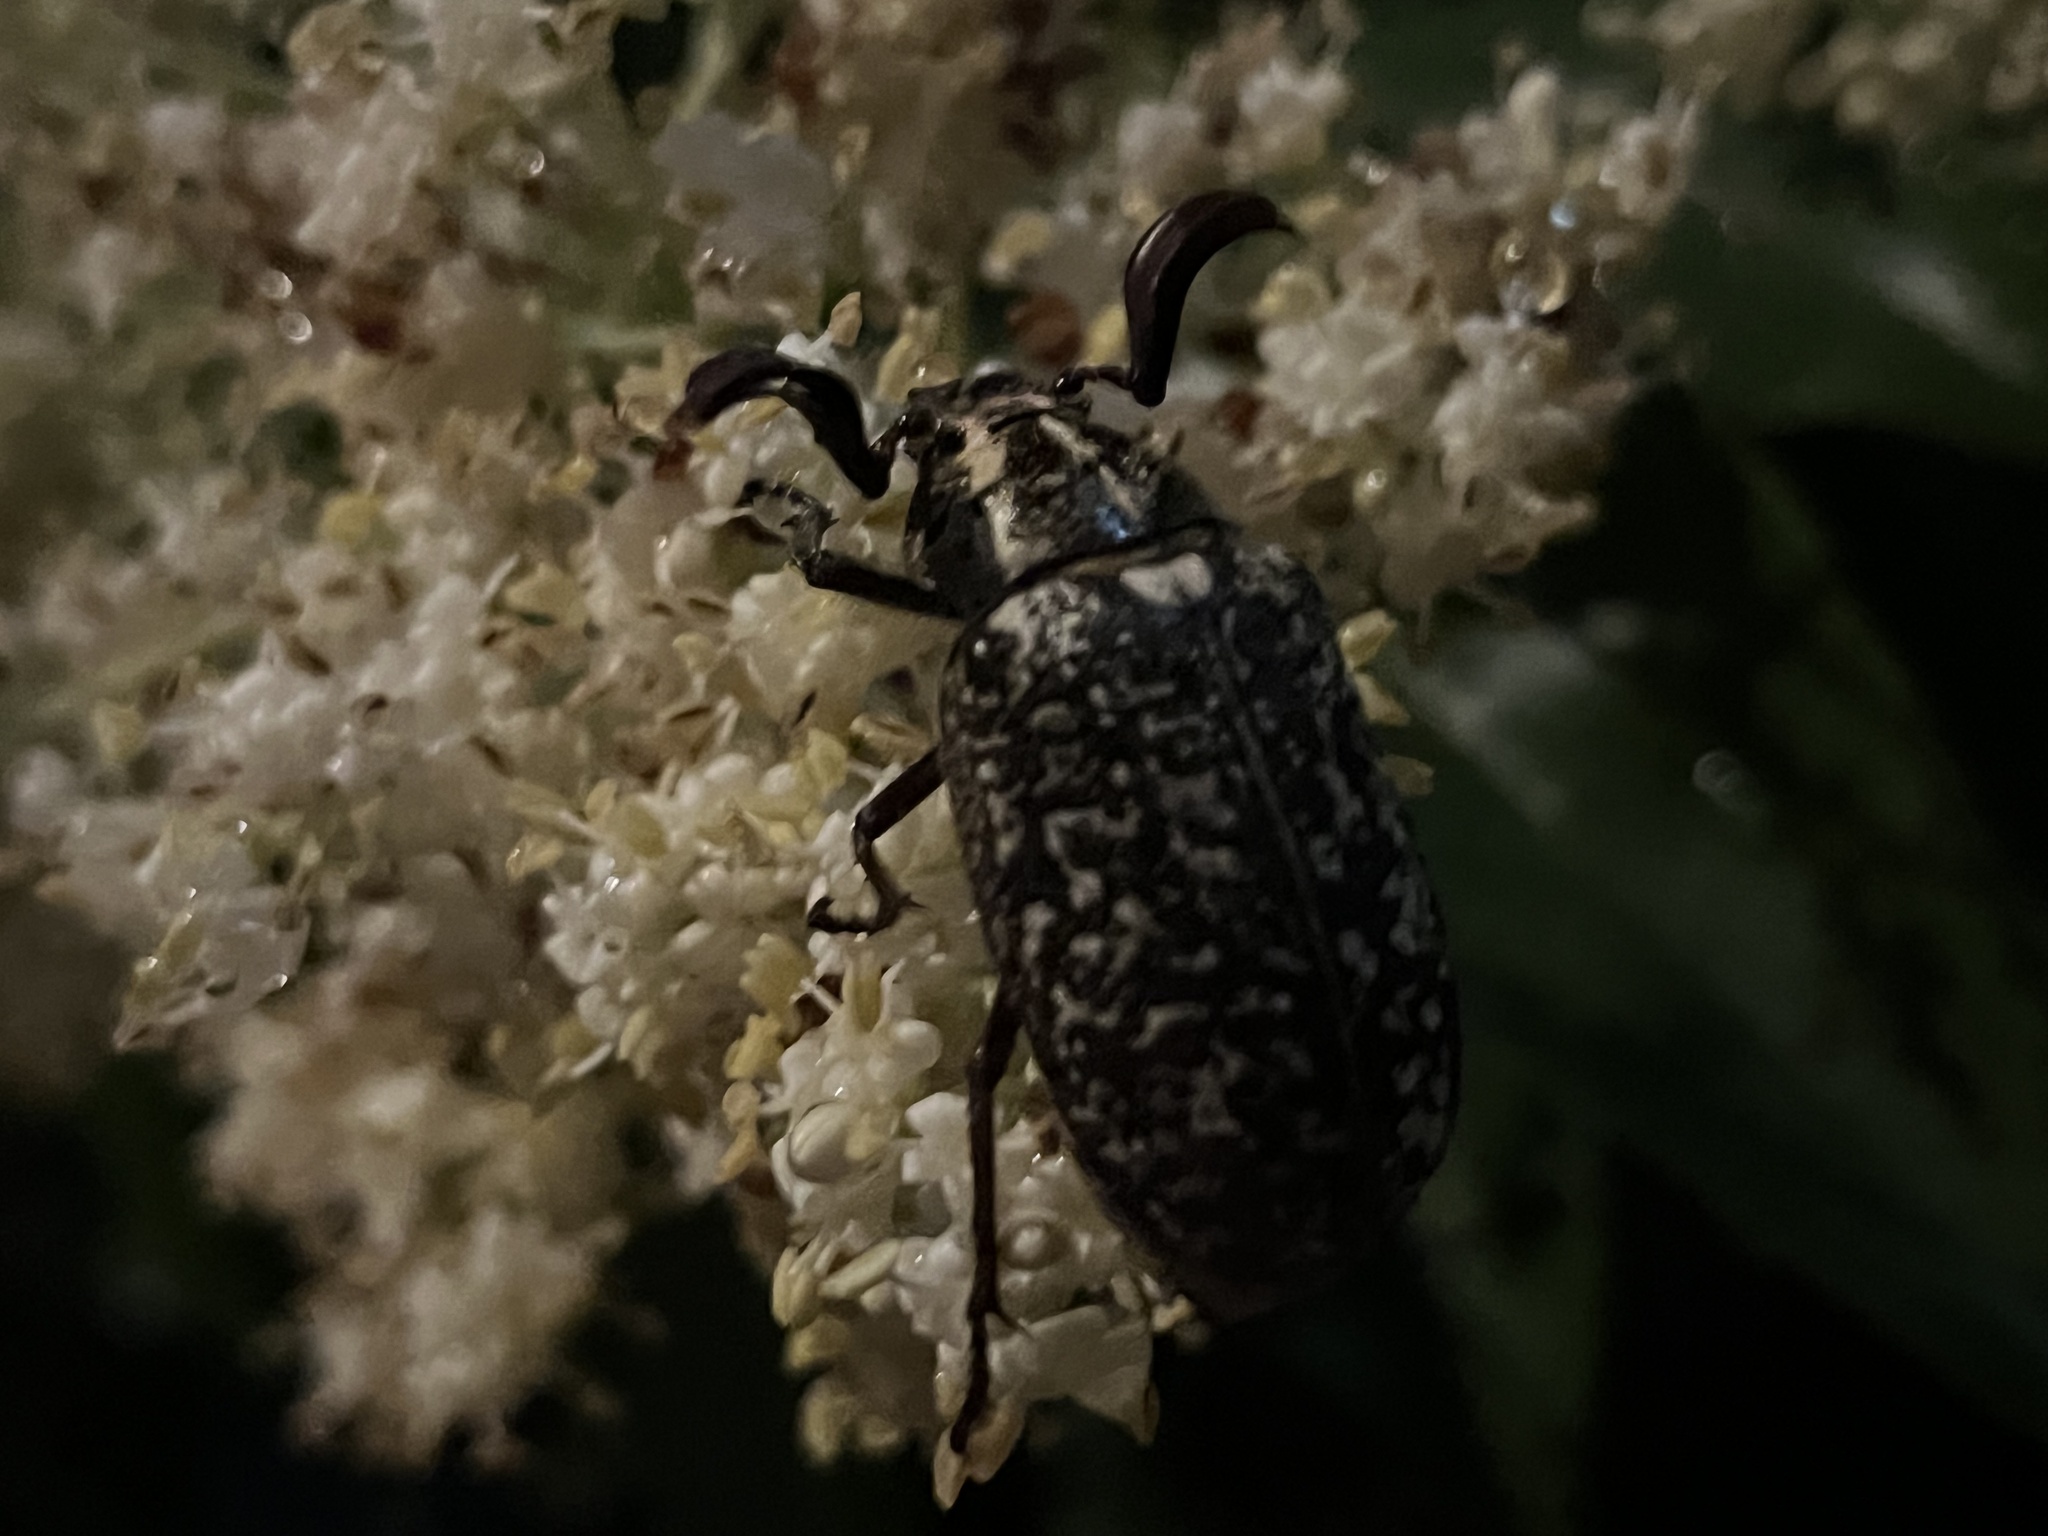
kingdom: Animalia
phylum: Arthropoda
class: Insecta
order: Coleoptera
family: Scarabaeidae
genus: Polyphylla
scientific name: Polyphylla fullo
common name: Pine chafer
